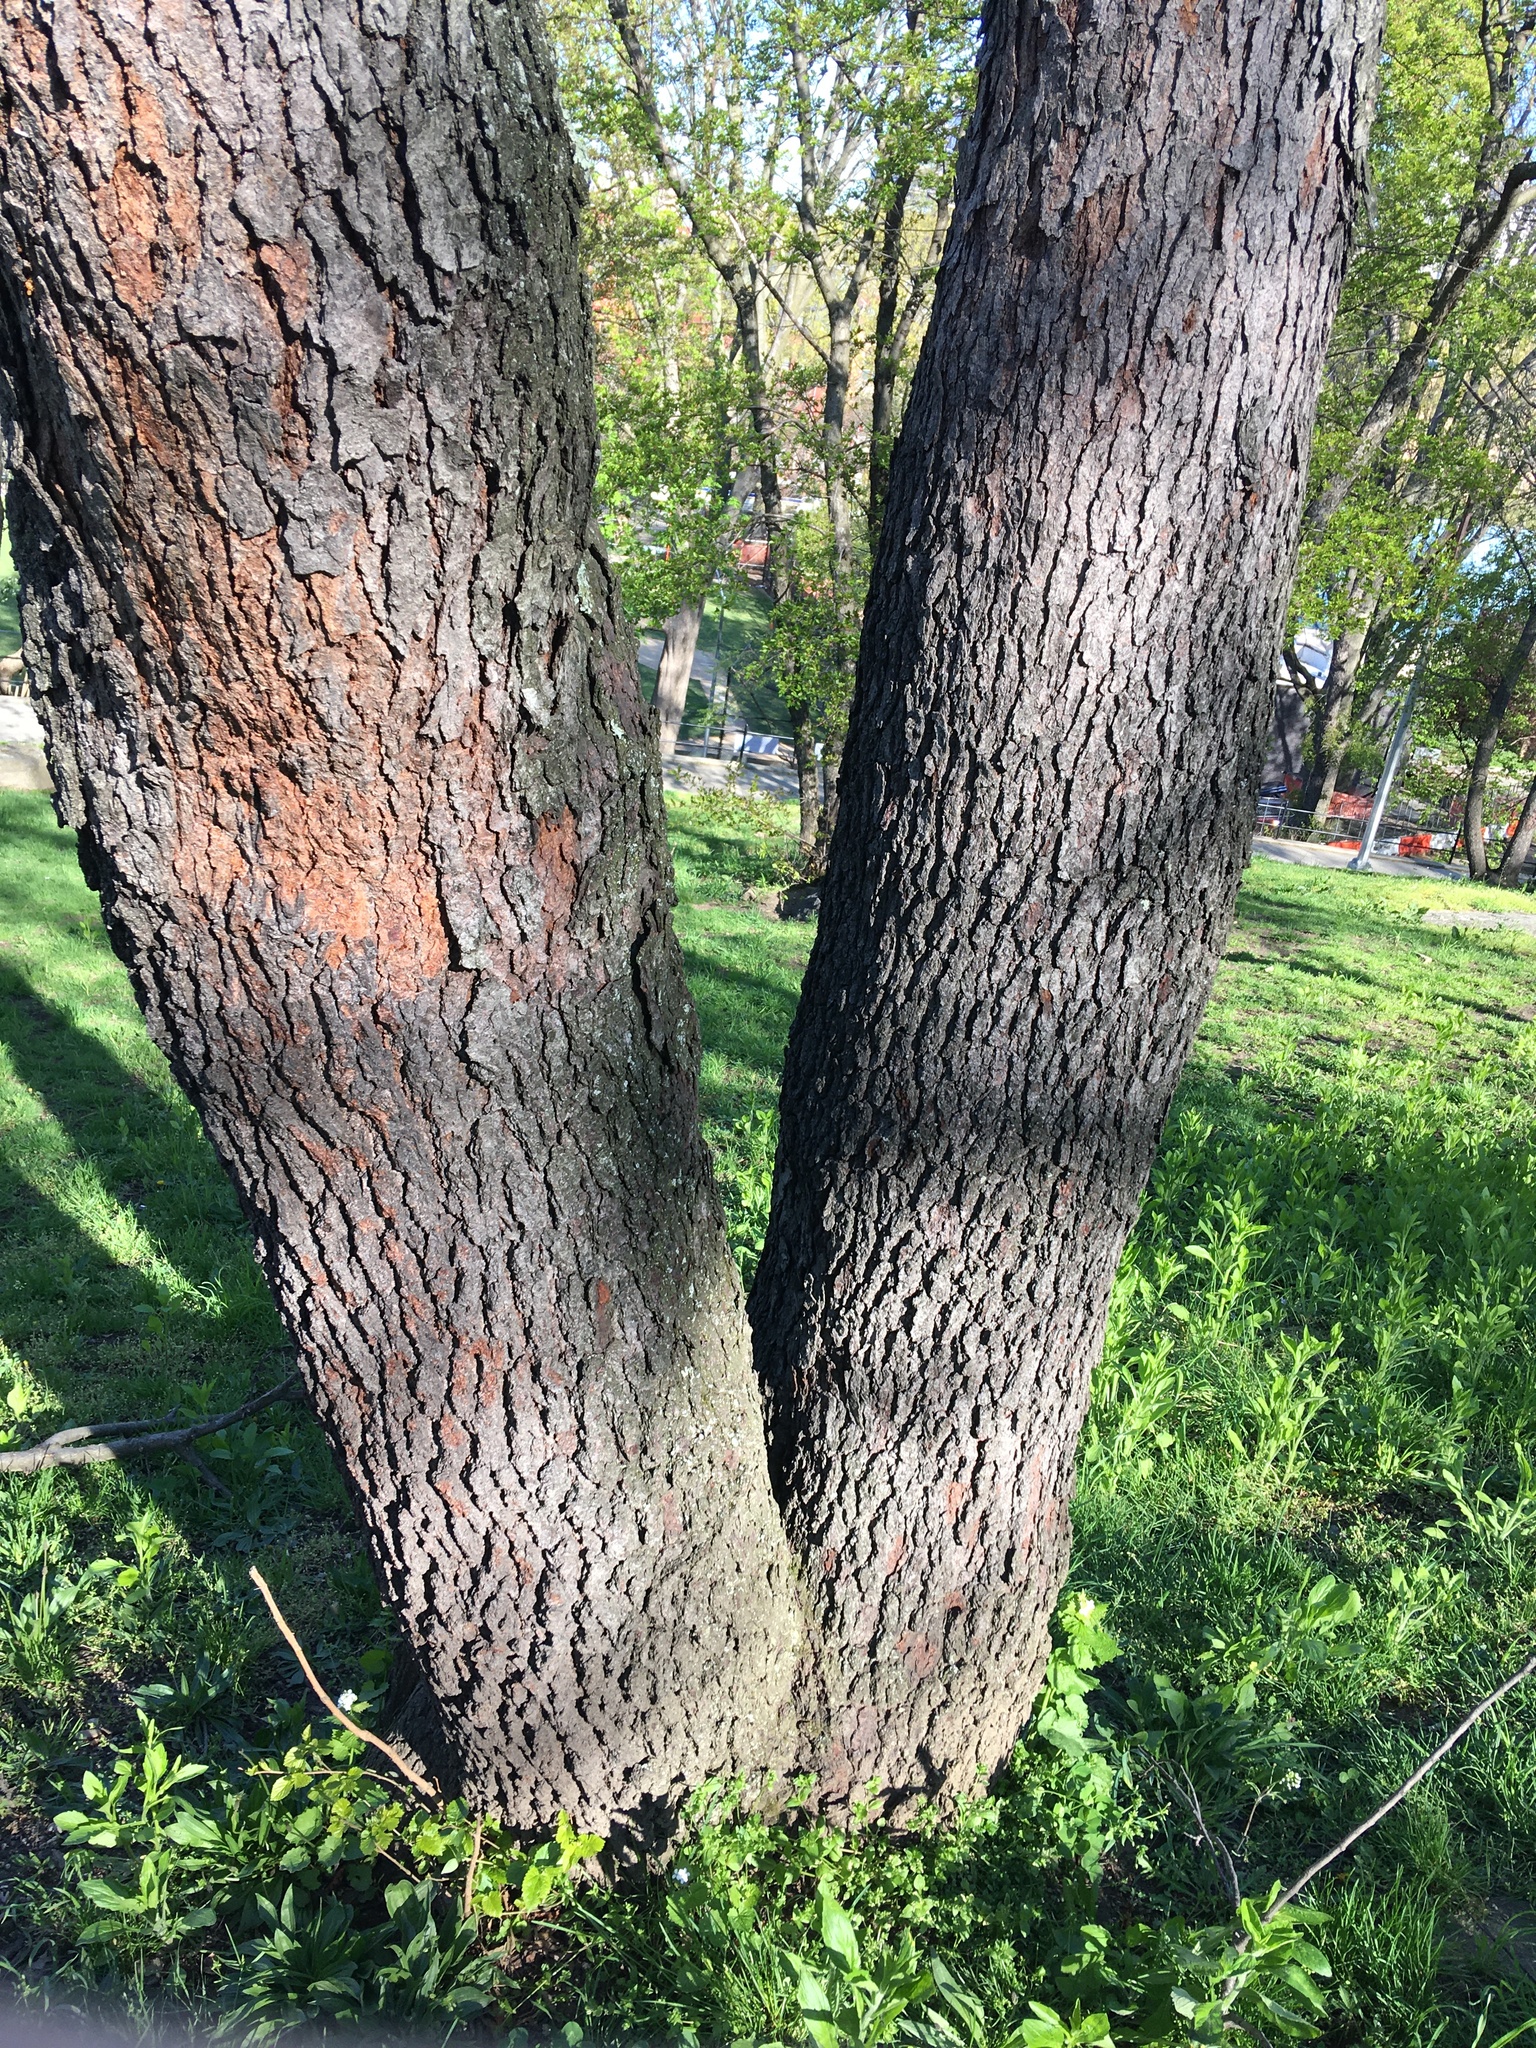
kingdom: Plantae
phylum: Tracheophyta
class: Magnoliopsida
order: Rosales
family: Rosaceae
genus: Prunus
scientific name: Prunus serotina
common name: Black cherry
